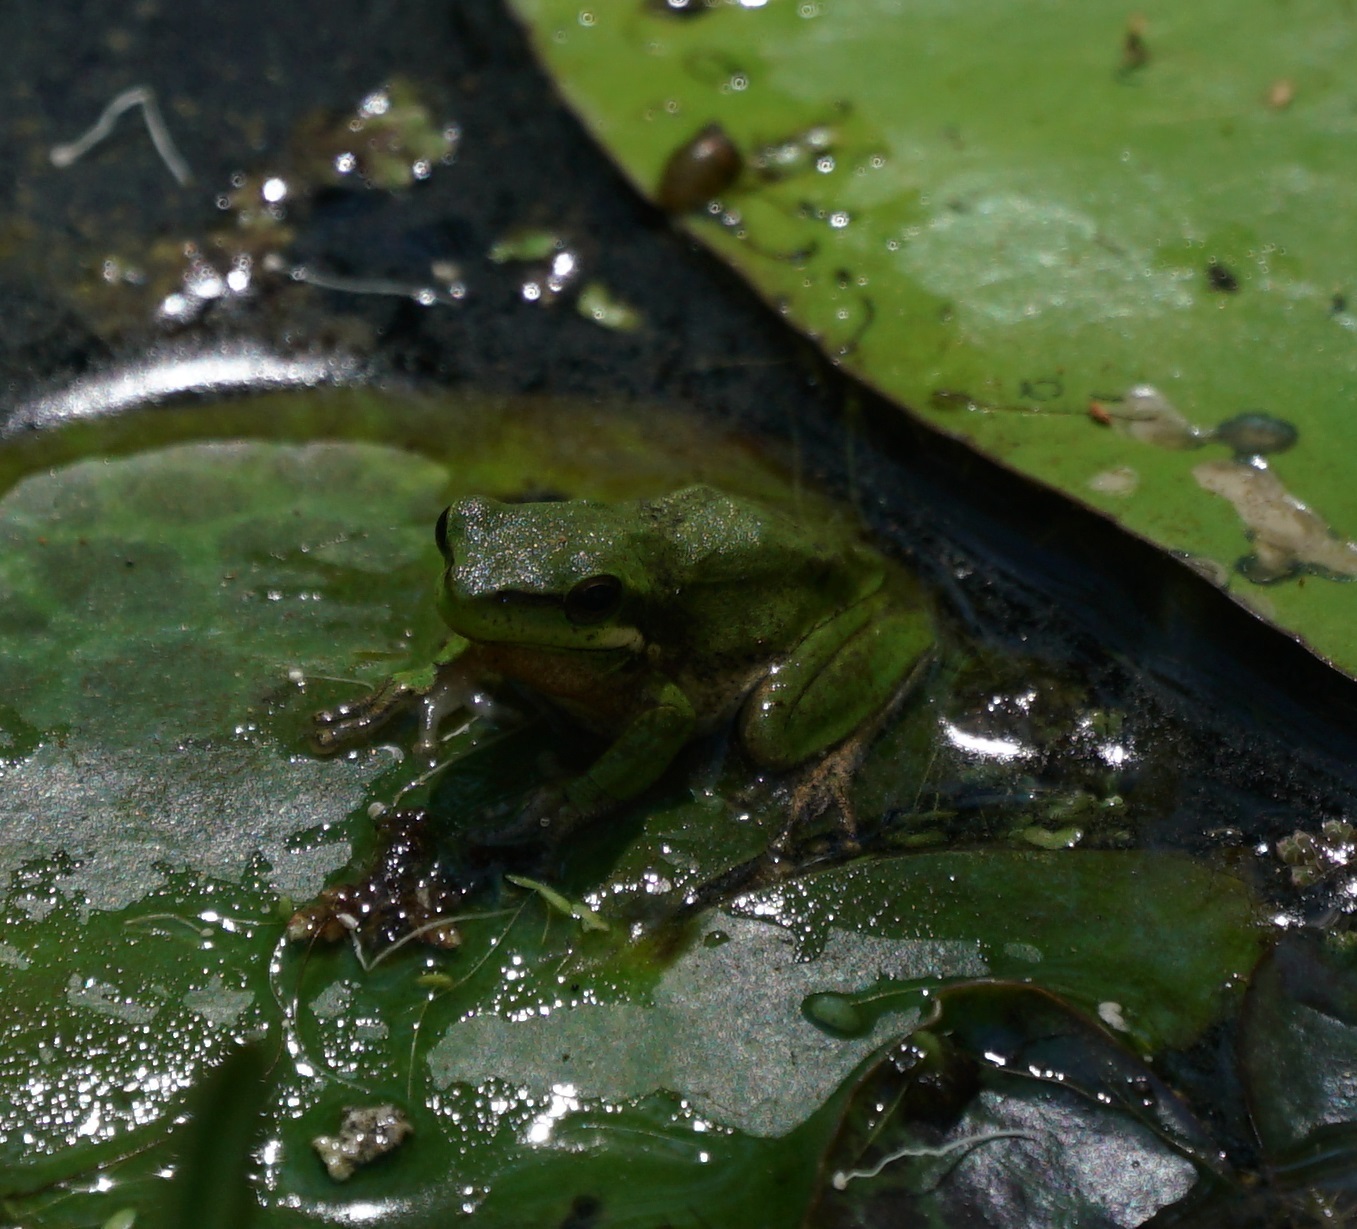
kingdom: Animalia
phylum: Chordata
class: Amphibia
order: Anura
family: Pelodryadidae
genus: Litoria
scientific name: Litoria fallax
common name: Eastern dwarf treefrog
